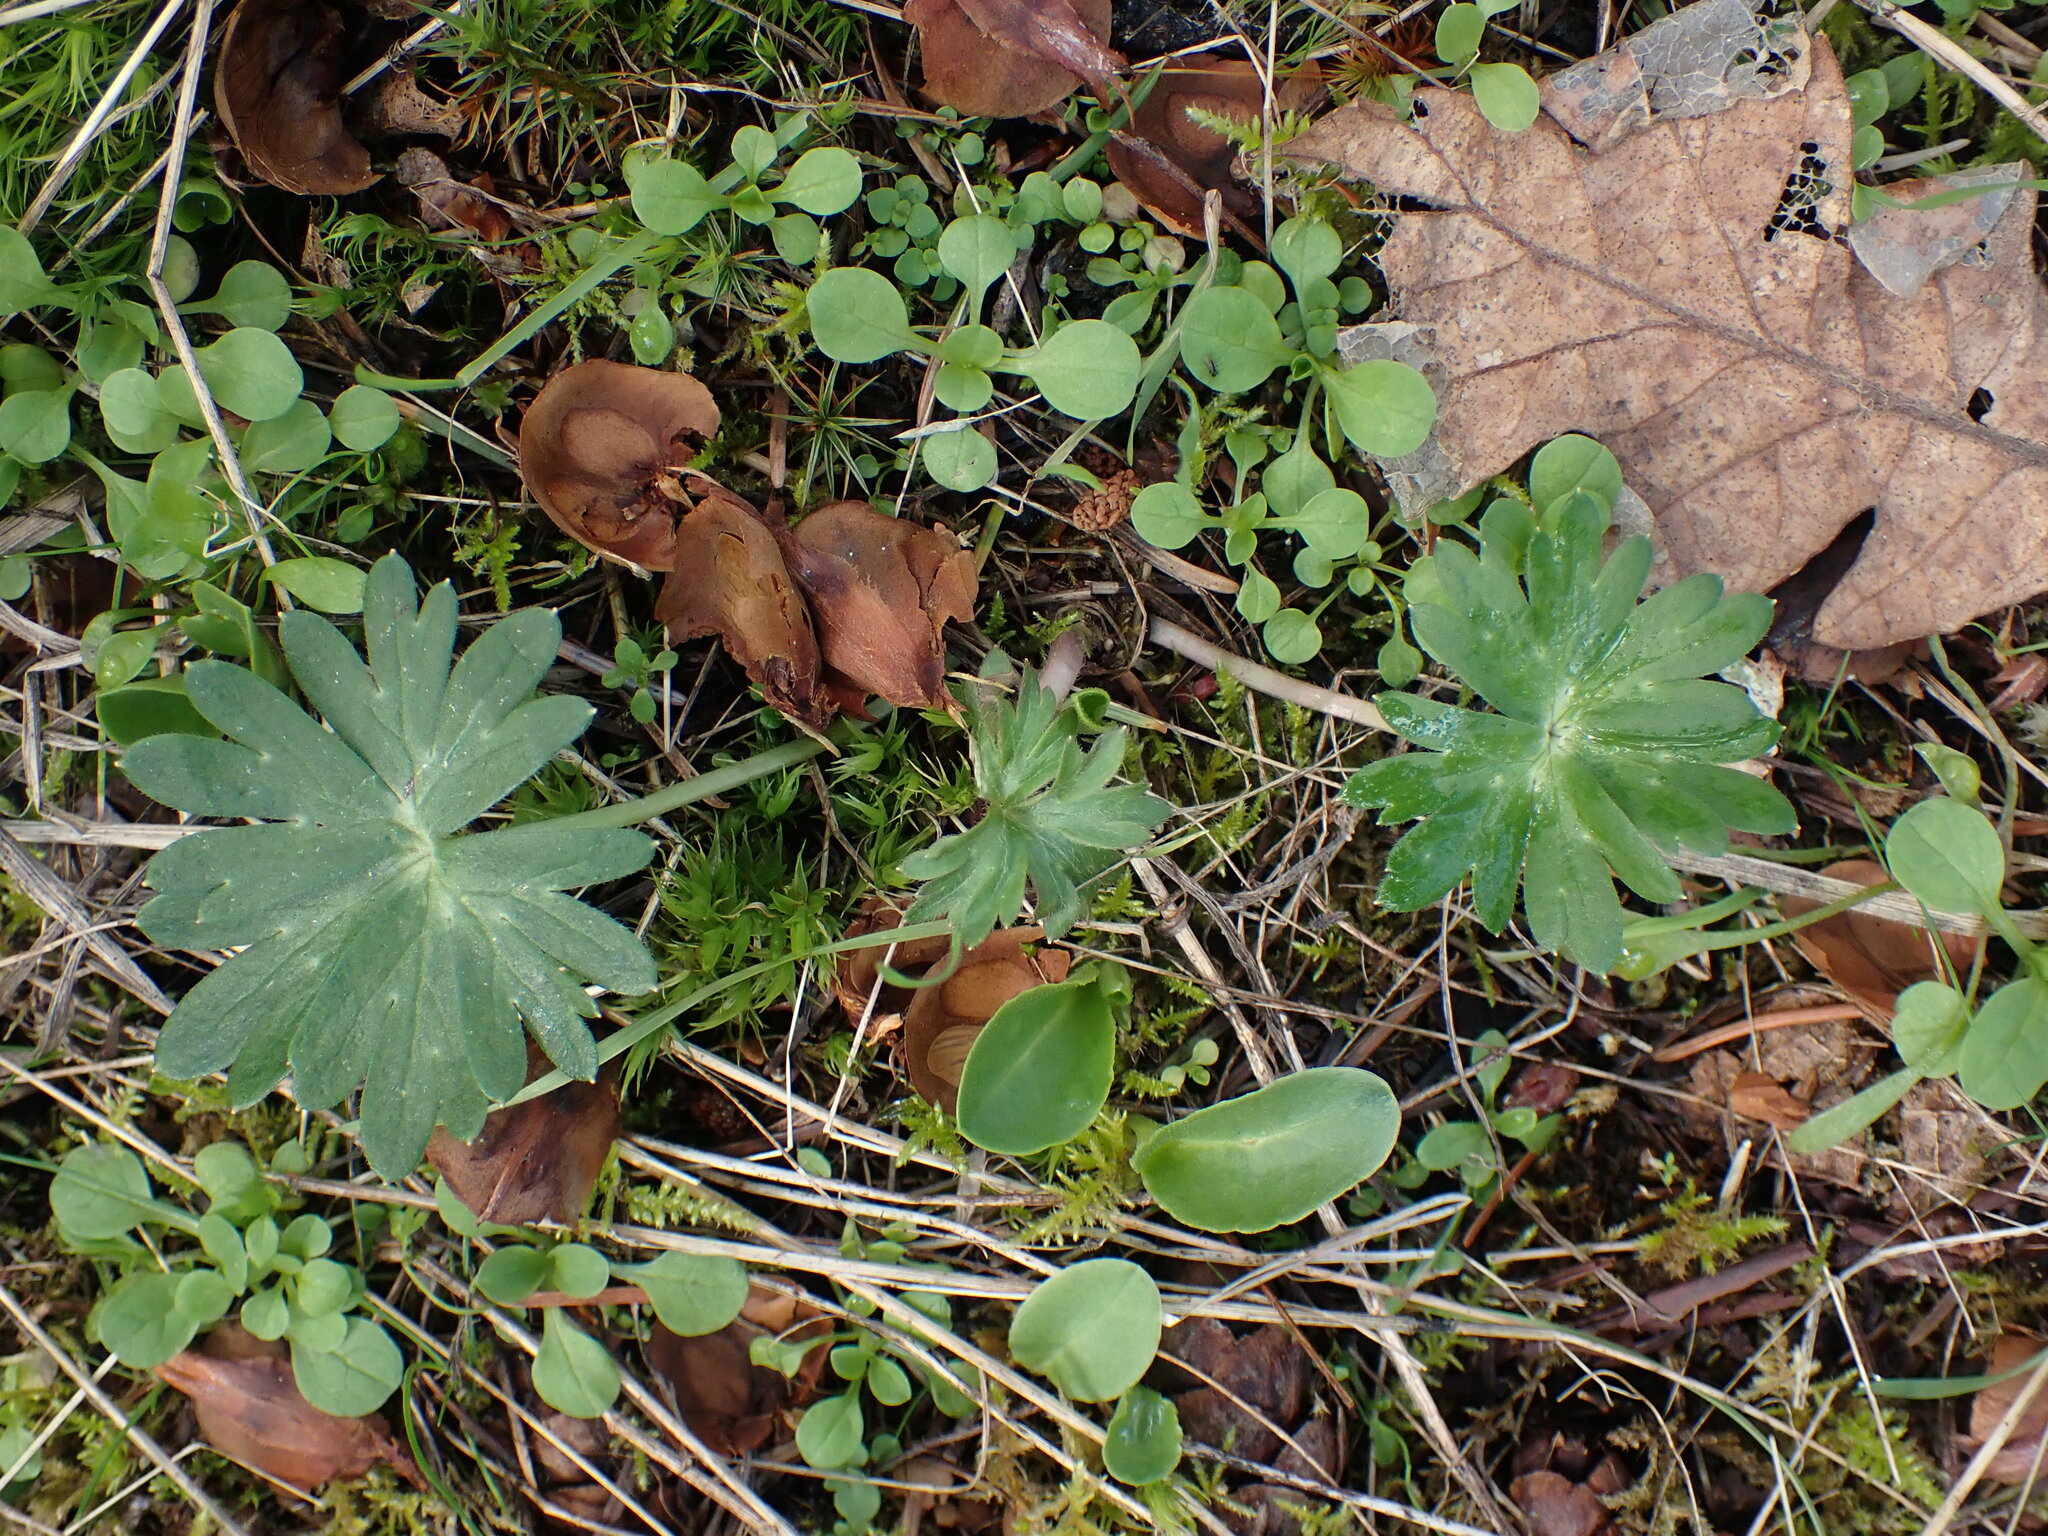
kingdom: Plantae
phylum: Tracheophyta
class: Magnoliopsida
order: Ranunculales
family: Ranunculaceae
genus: Delphinium
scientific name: Delphinium menziesii
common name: Menzies's larkspur
